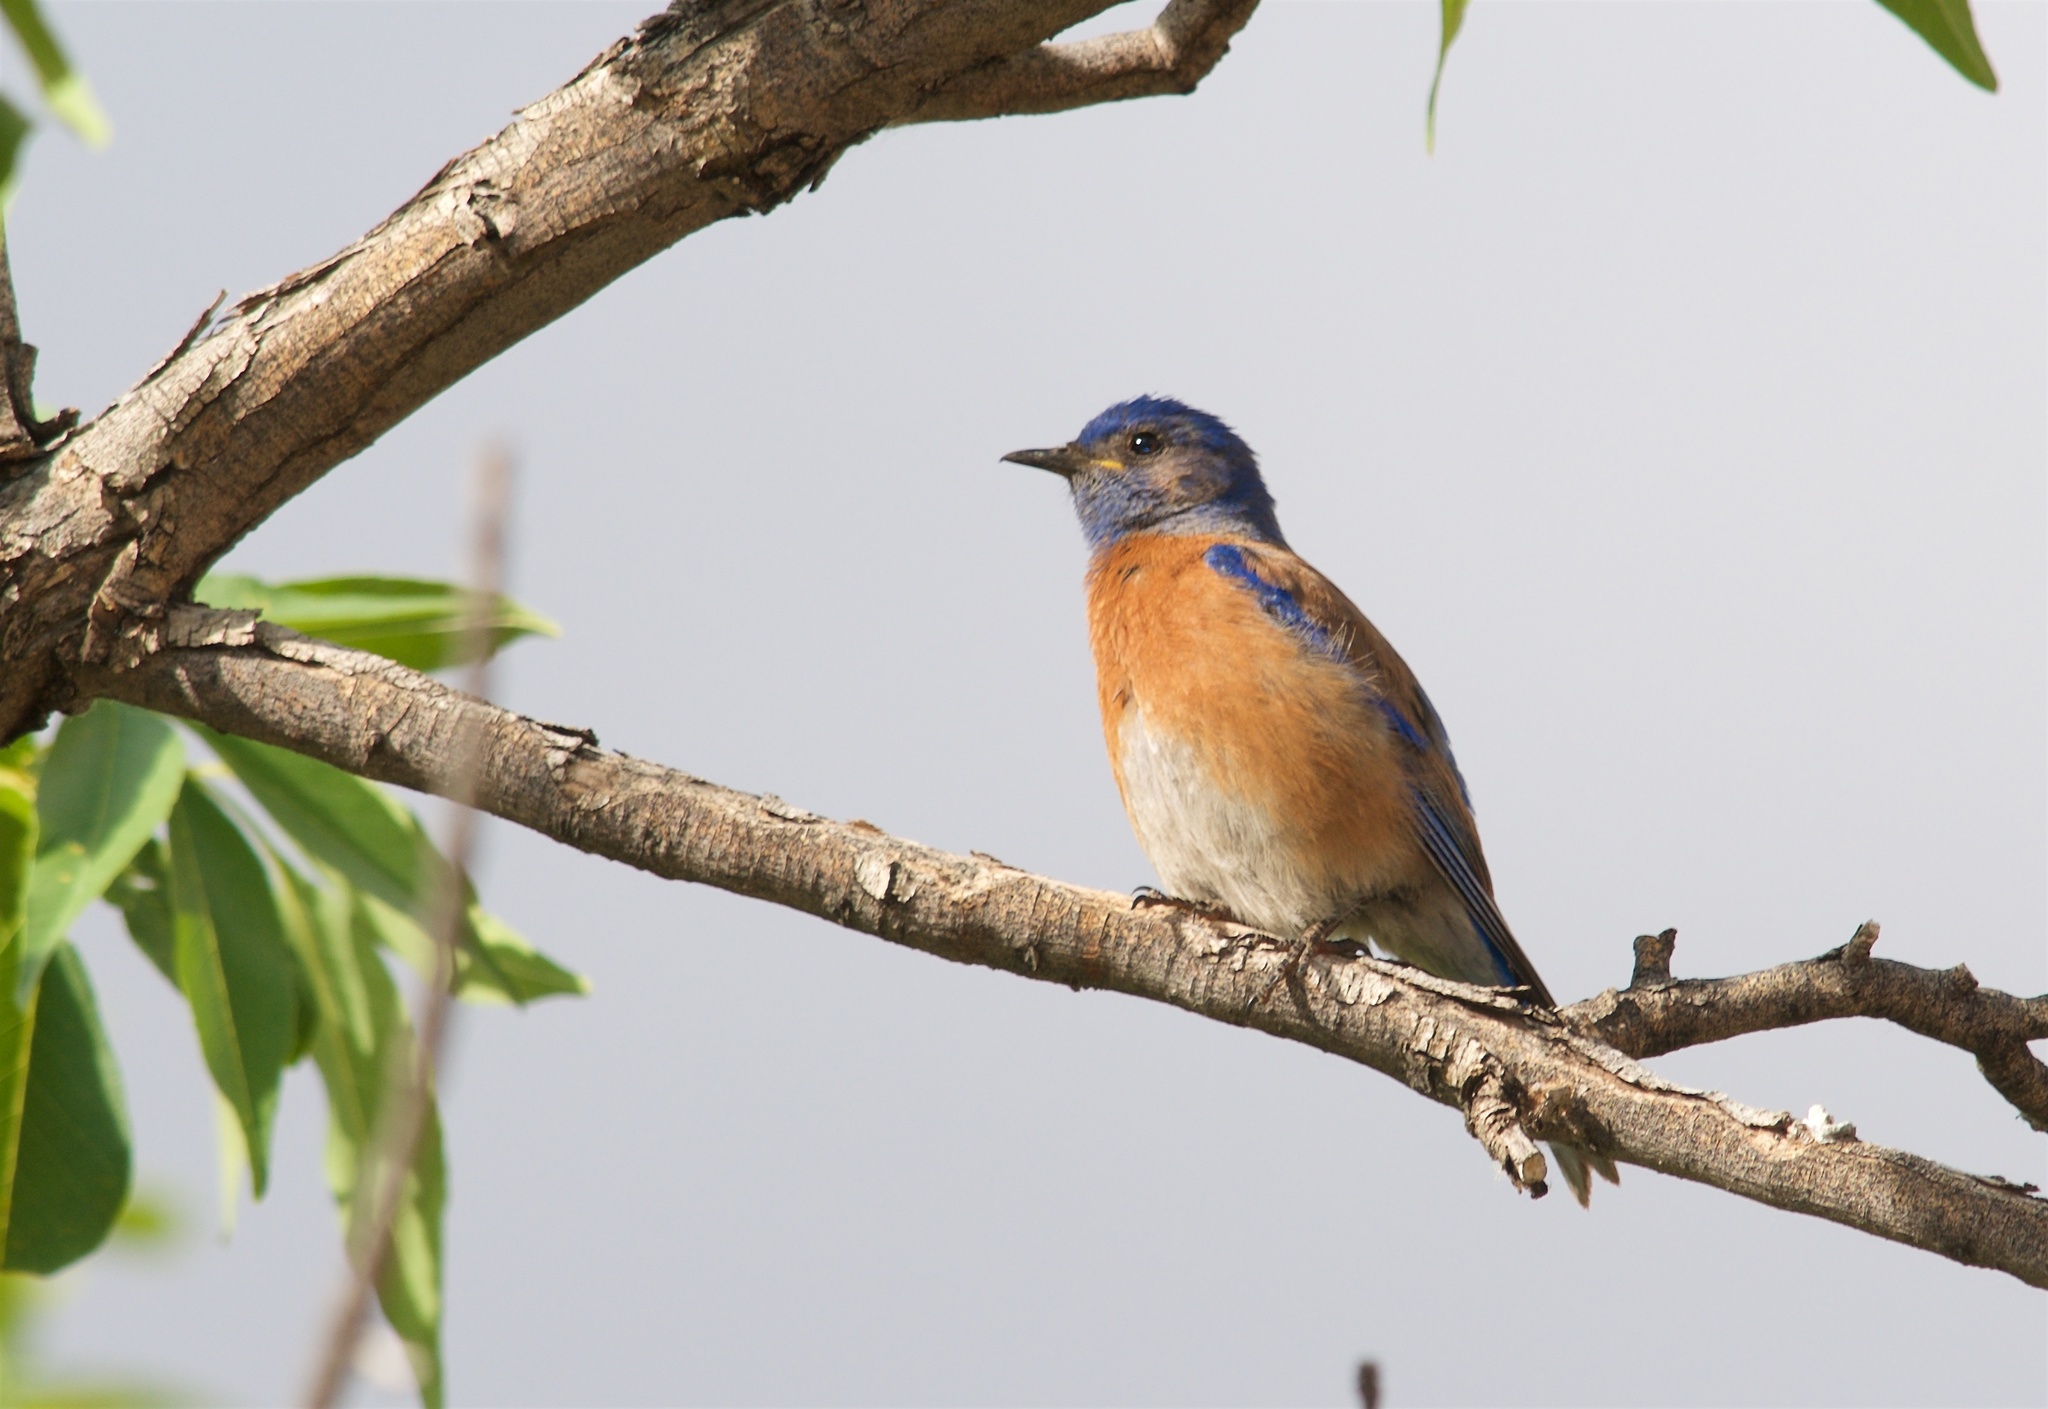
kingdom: Animalia
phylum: Chordata
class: Aves
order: Passeriformes
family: Turdidae
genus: Sialia
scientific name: Sialia mexicana
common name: Western bluebird
